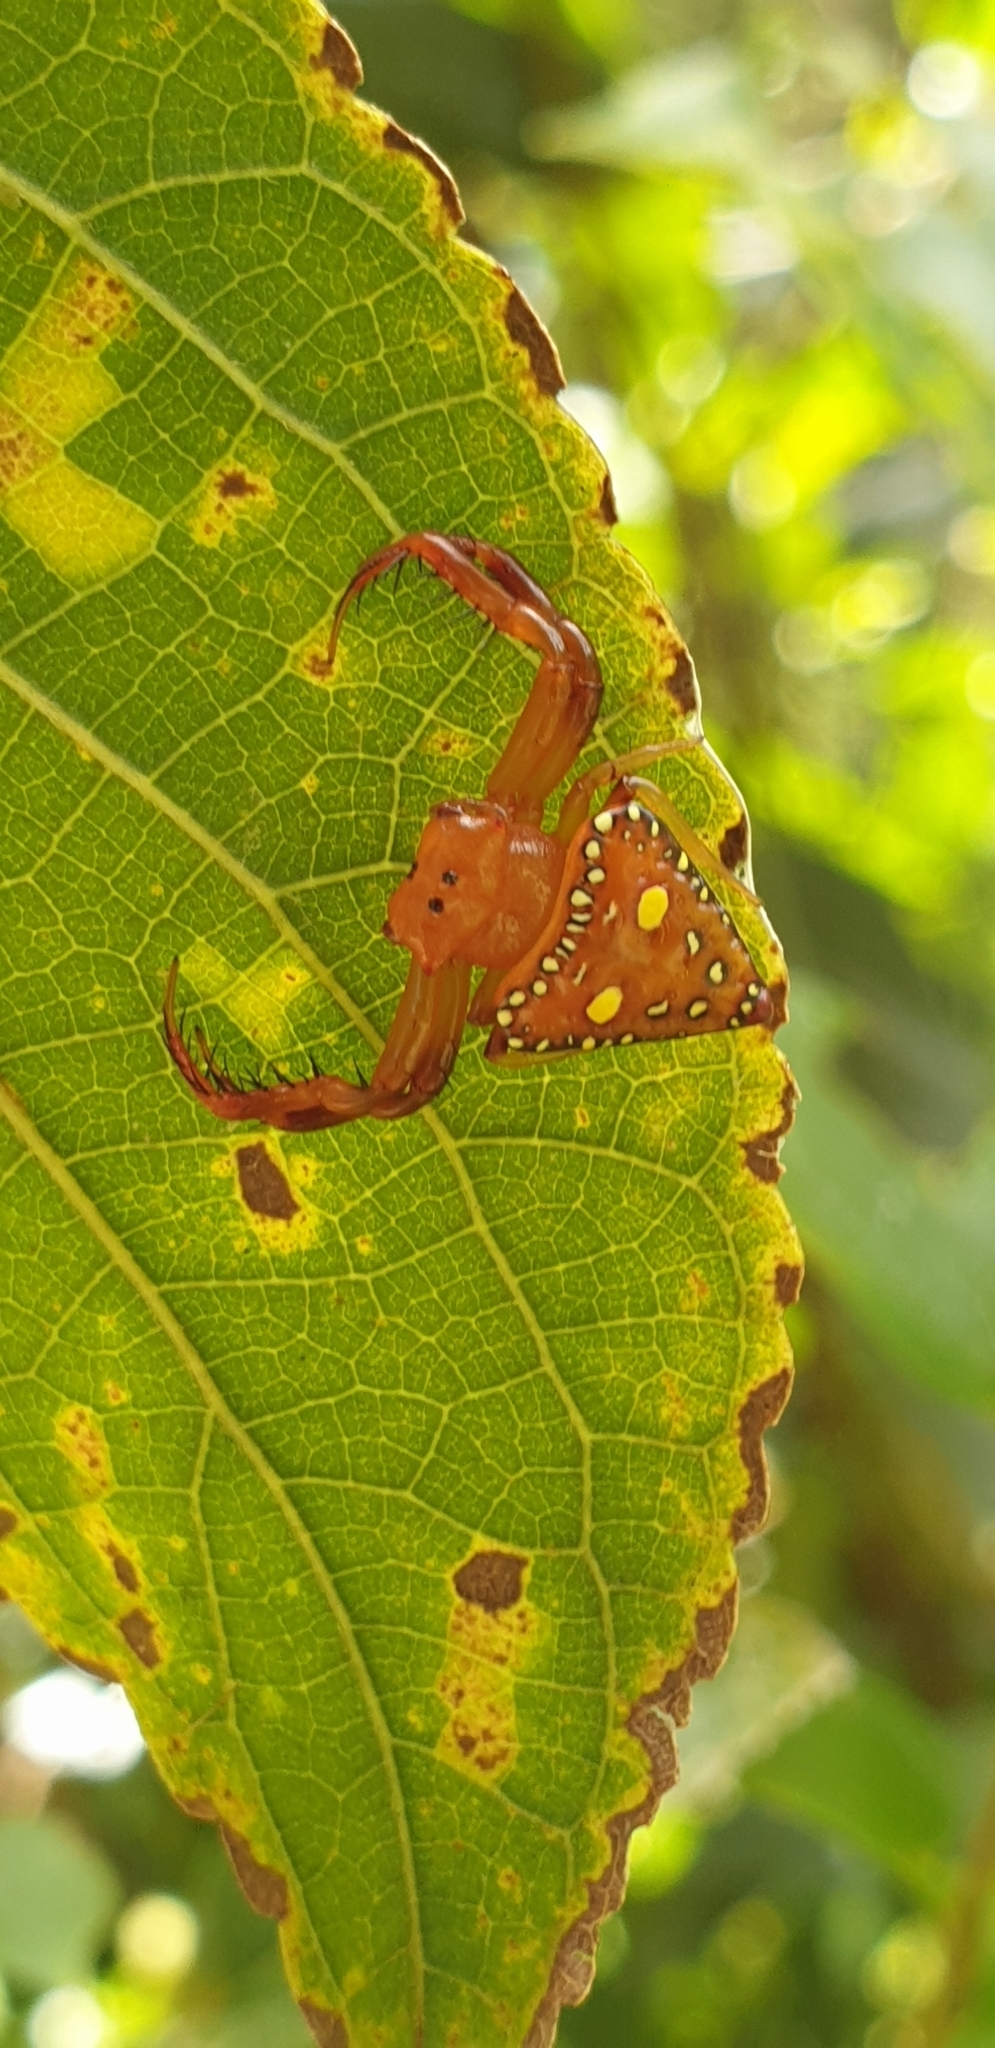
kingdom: Animalia
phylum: Arthropoda
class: Arachnida
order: Araneae
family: Arkyidae
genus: Arkys
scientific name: Arkys lancearius
